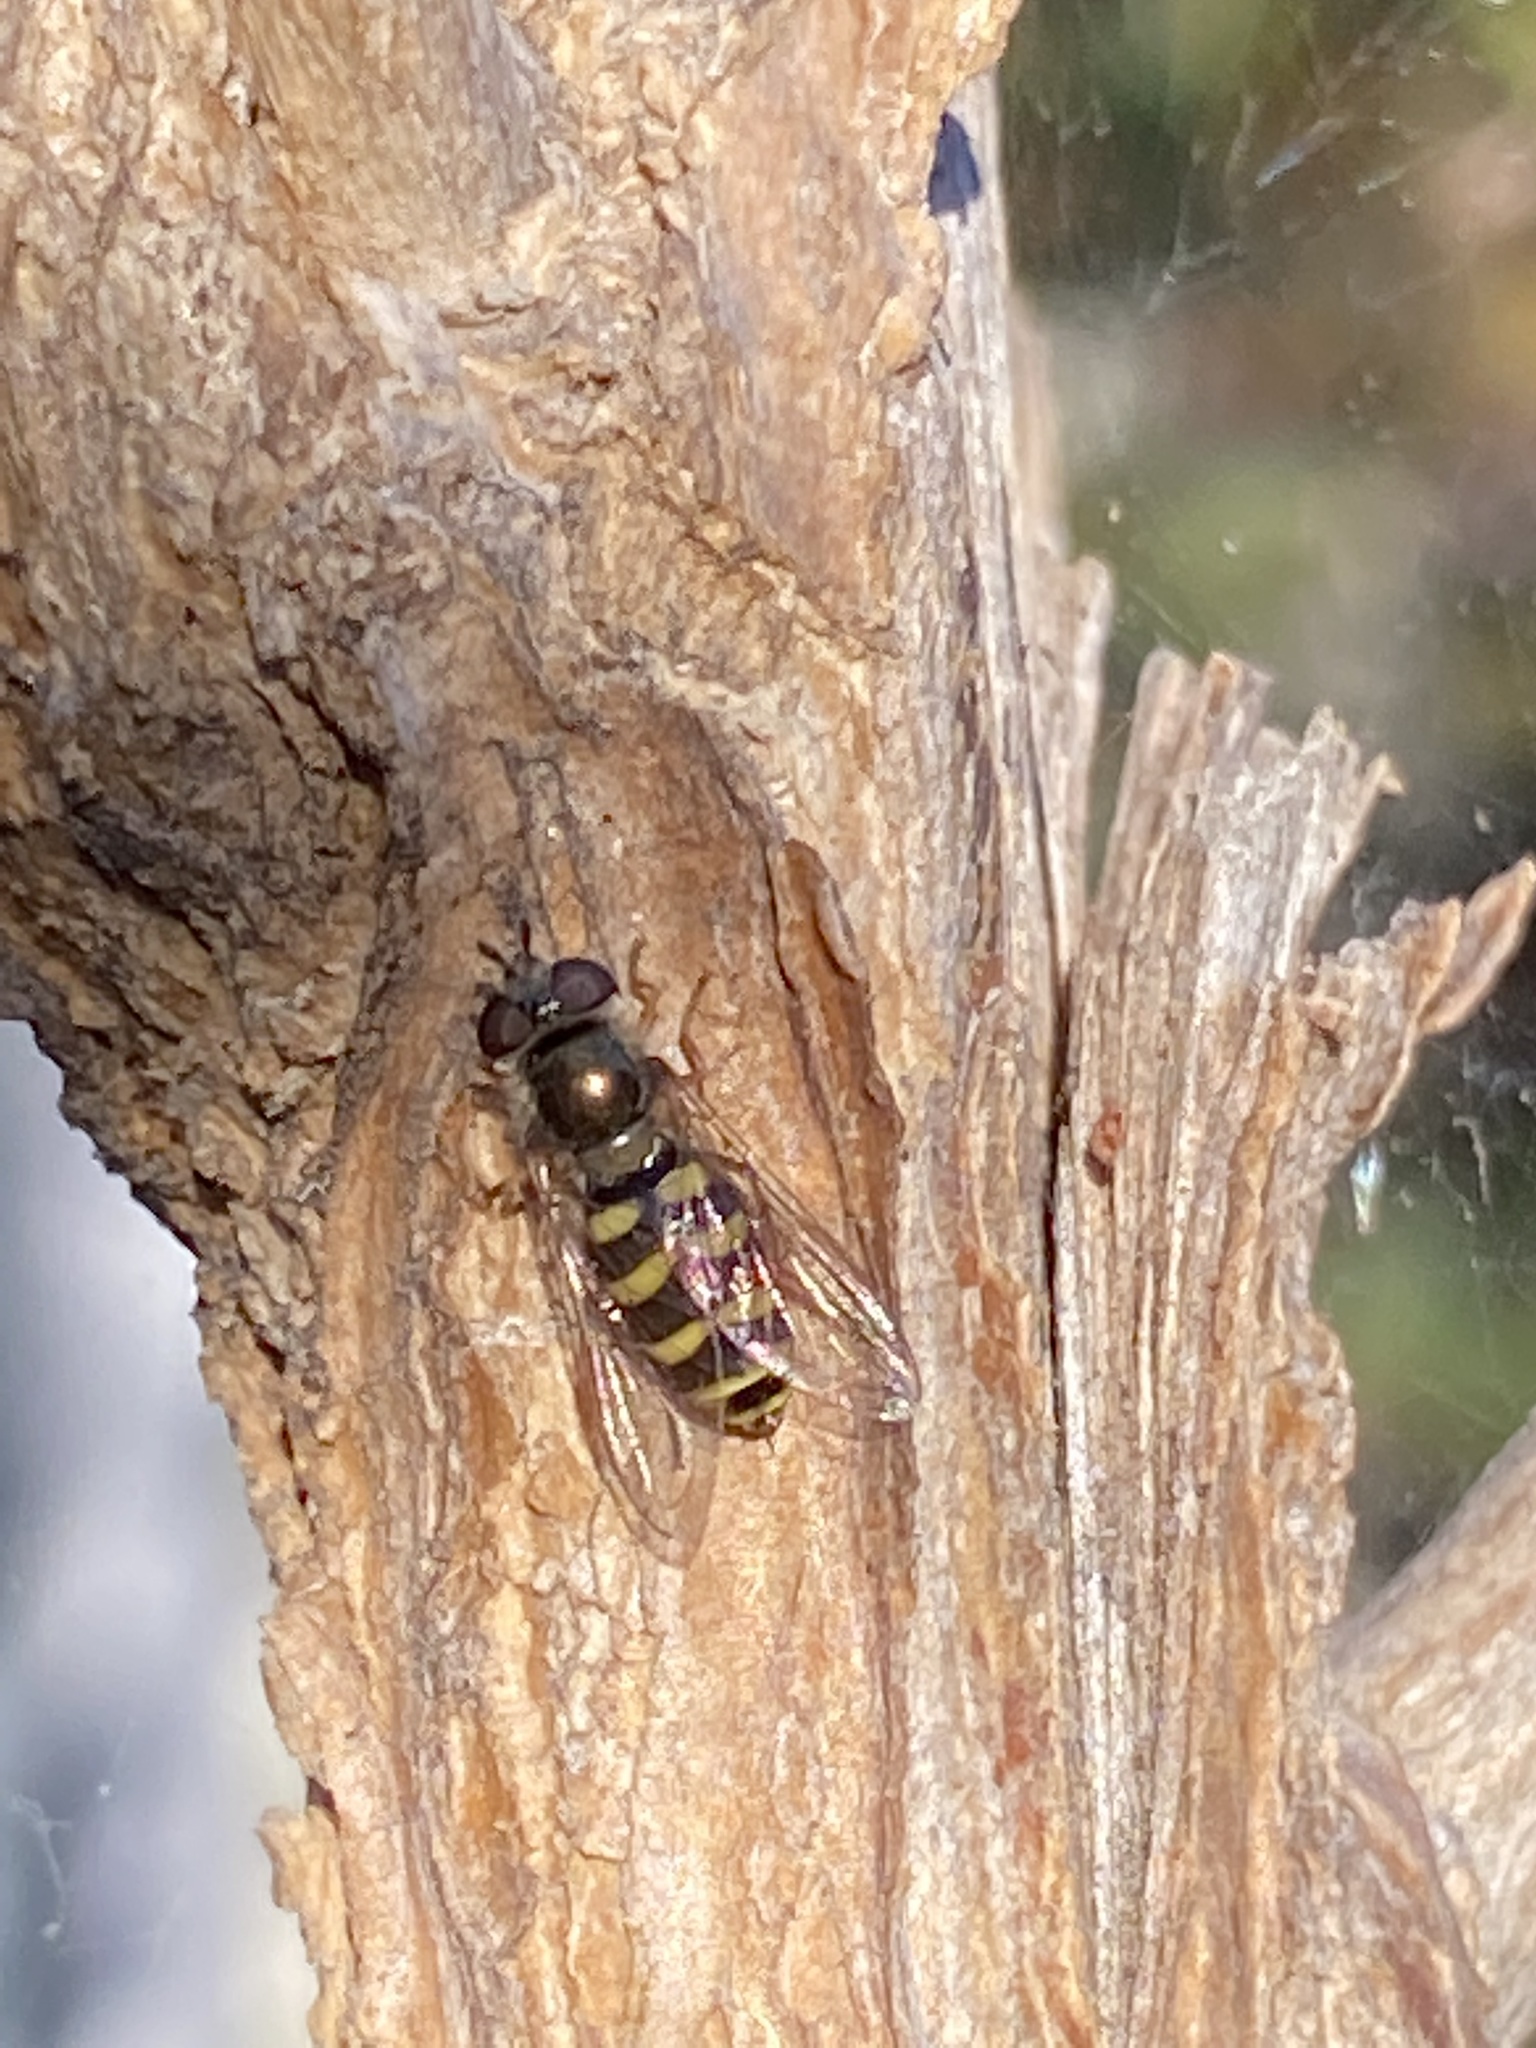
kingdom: Animalia
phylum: Arthropoda
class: Insecta
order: Diptera
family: Syrphidae
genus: Eupeodes
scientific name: Eupeodes fumipennis
